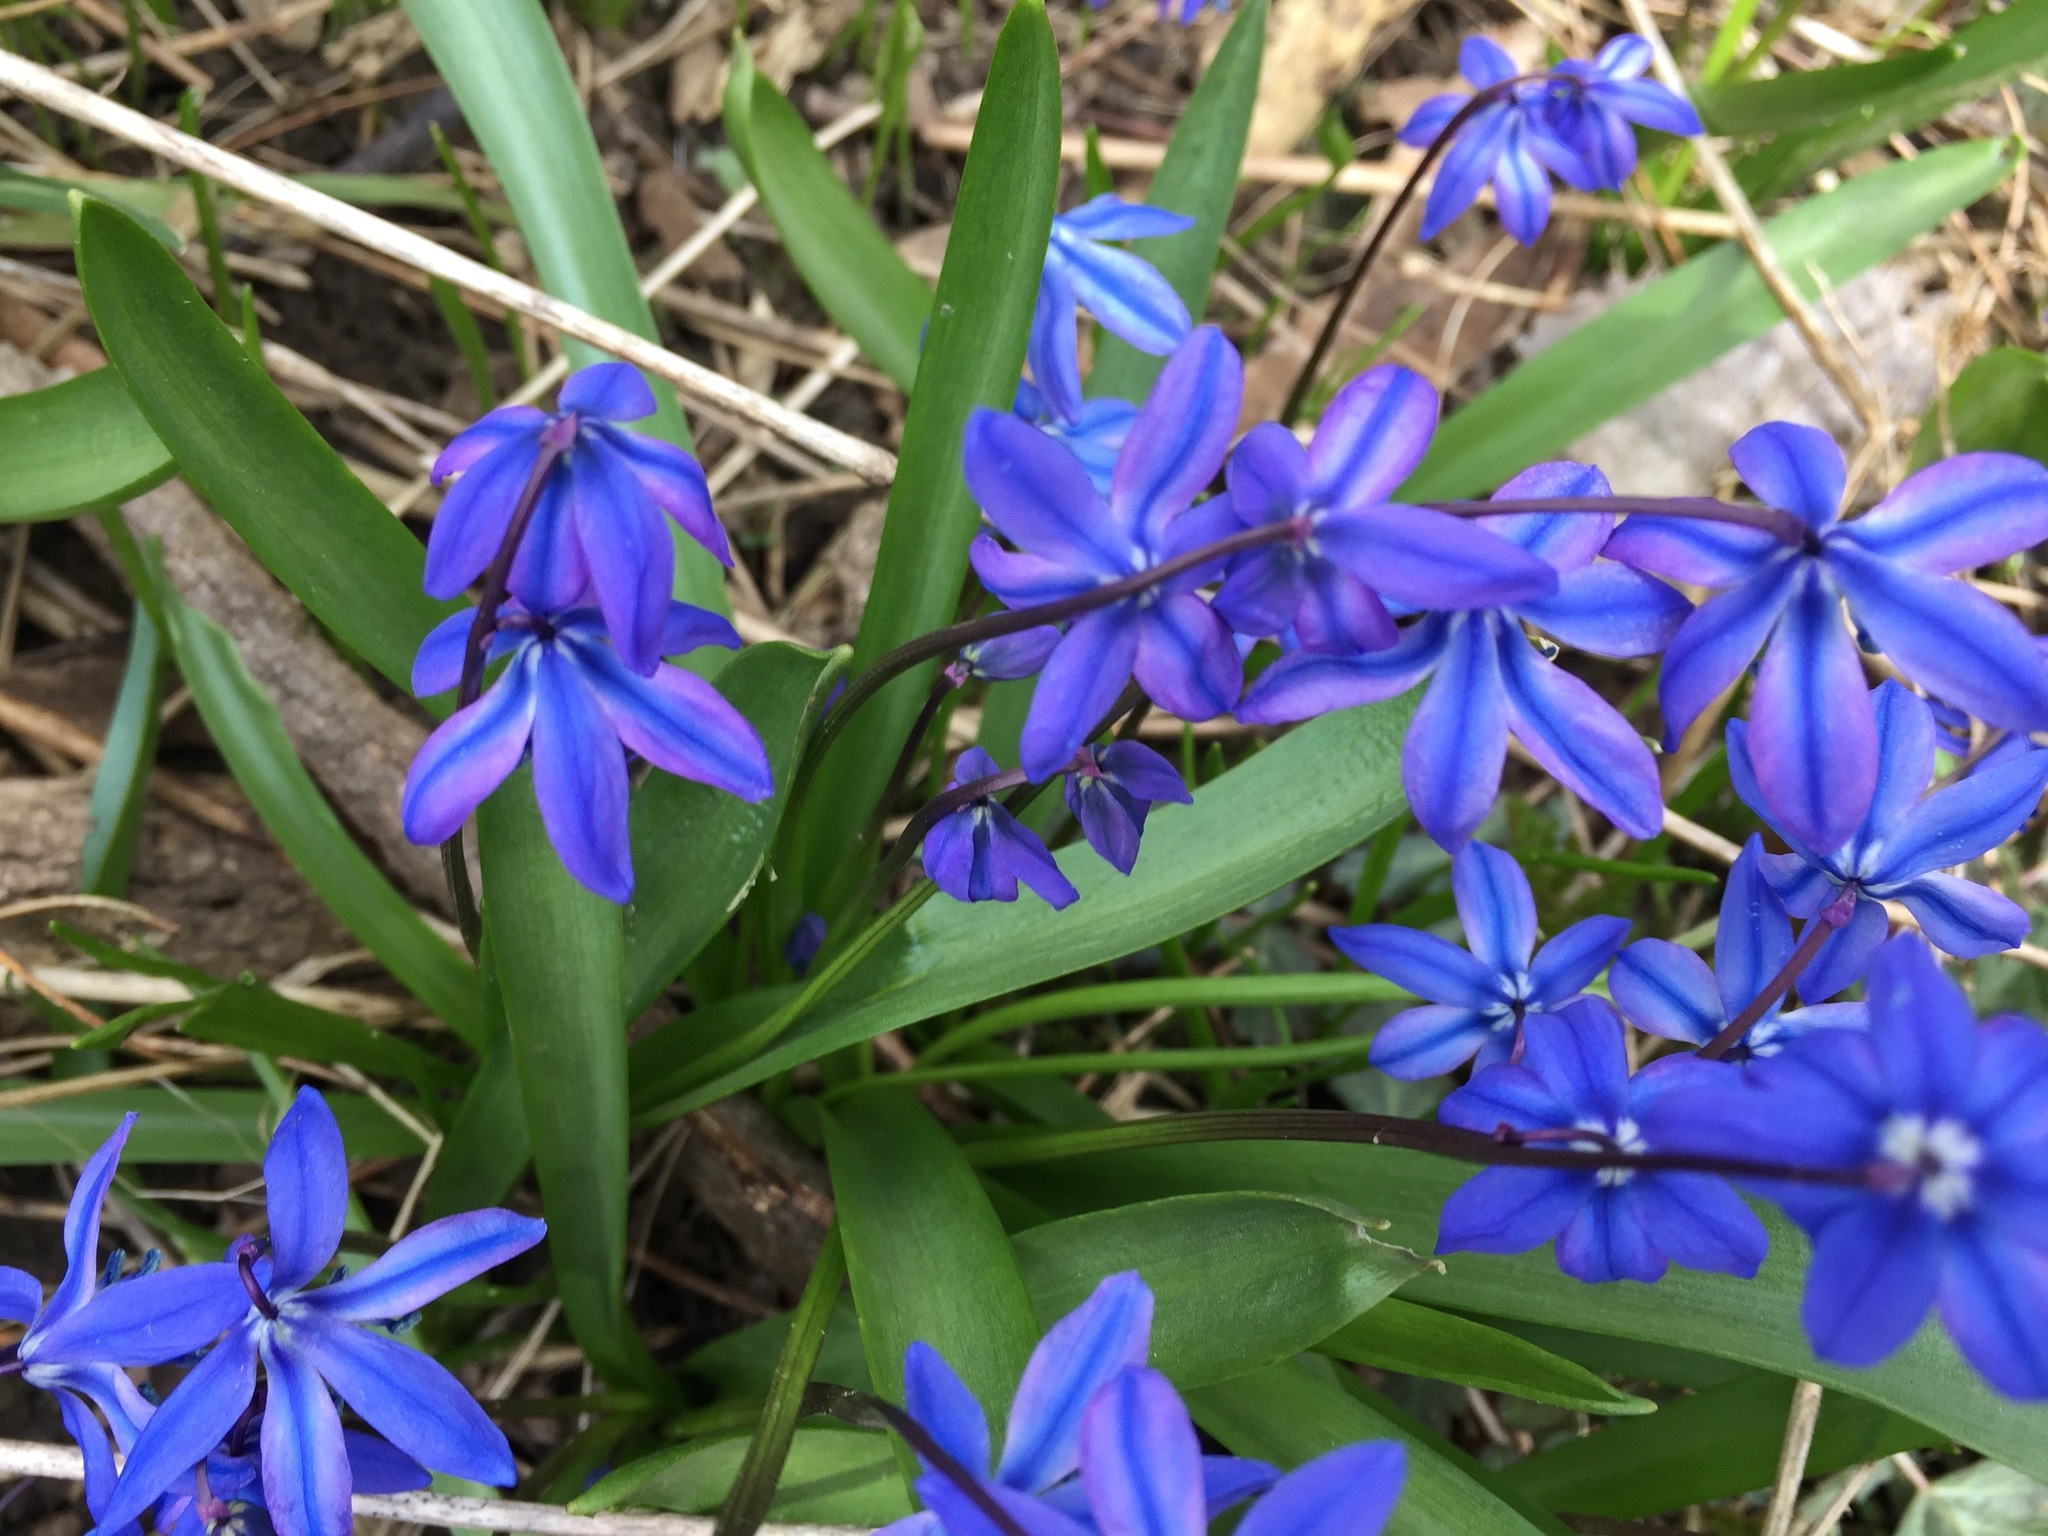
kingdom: Plantae
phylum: Tracheophyta
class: Liliopsida
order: Asparagales
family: Asparagaceae
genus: Scilla
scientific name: Scilla siberica
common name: Siberian squill
